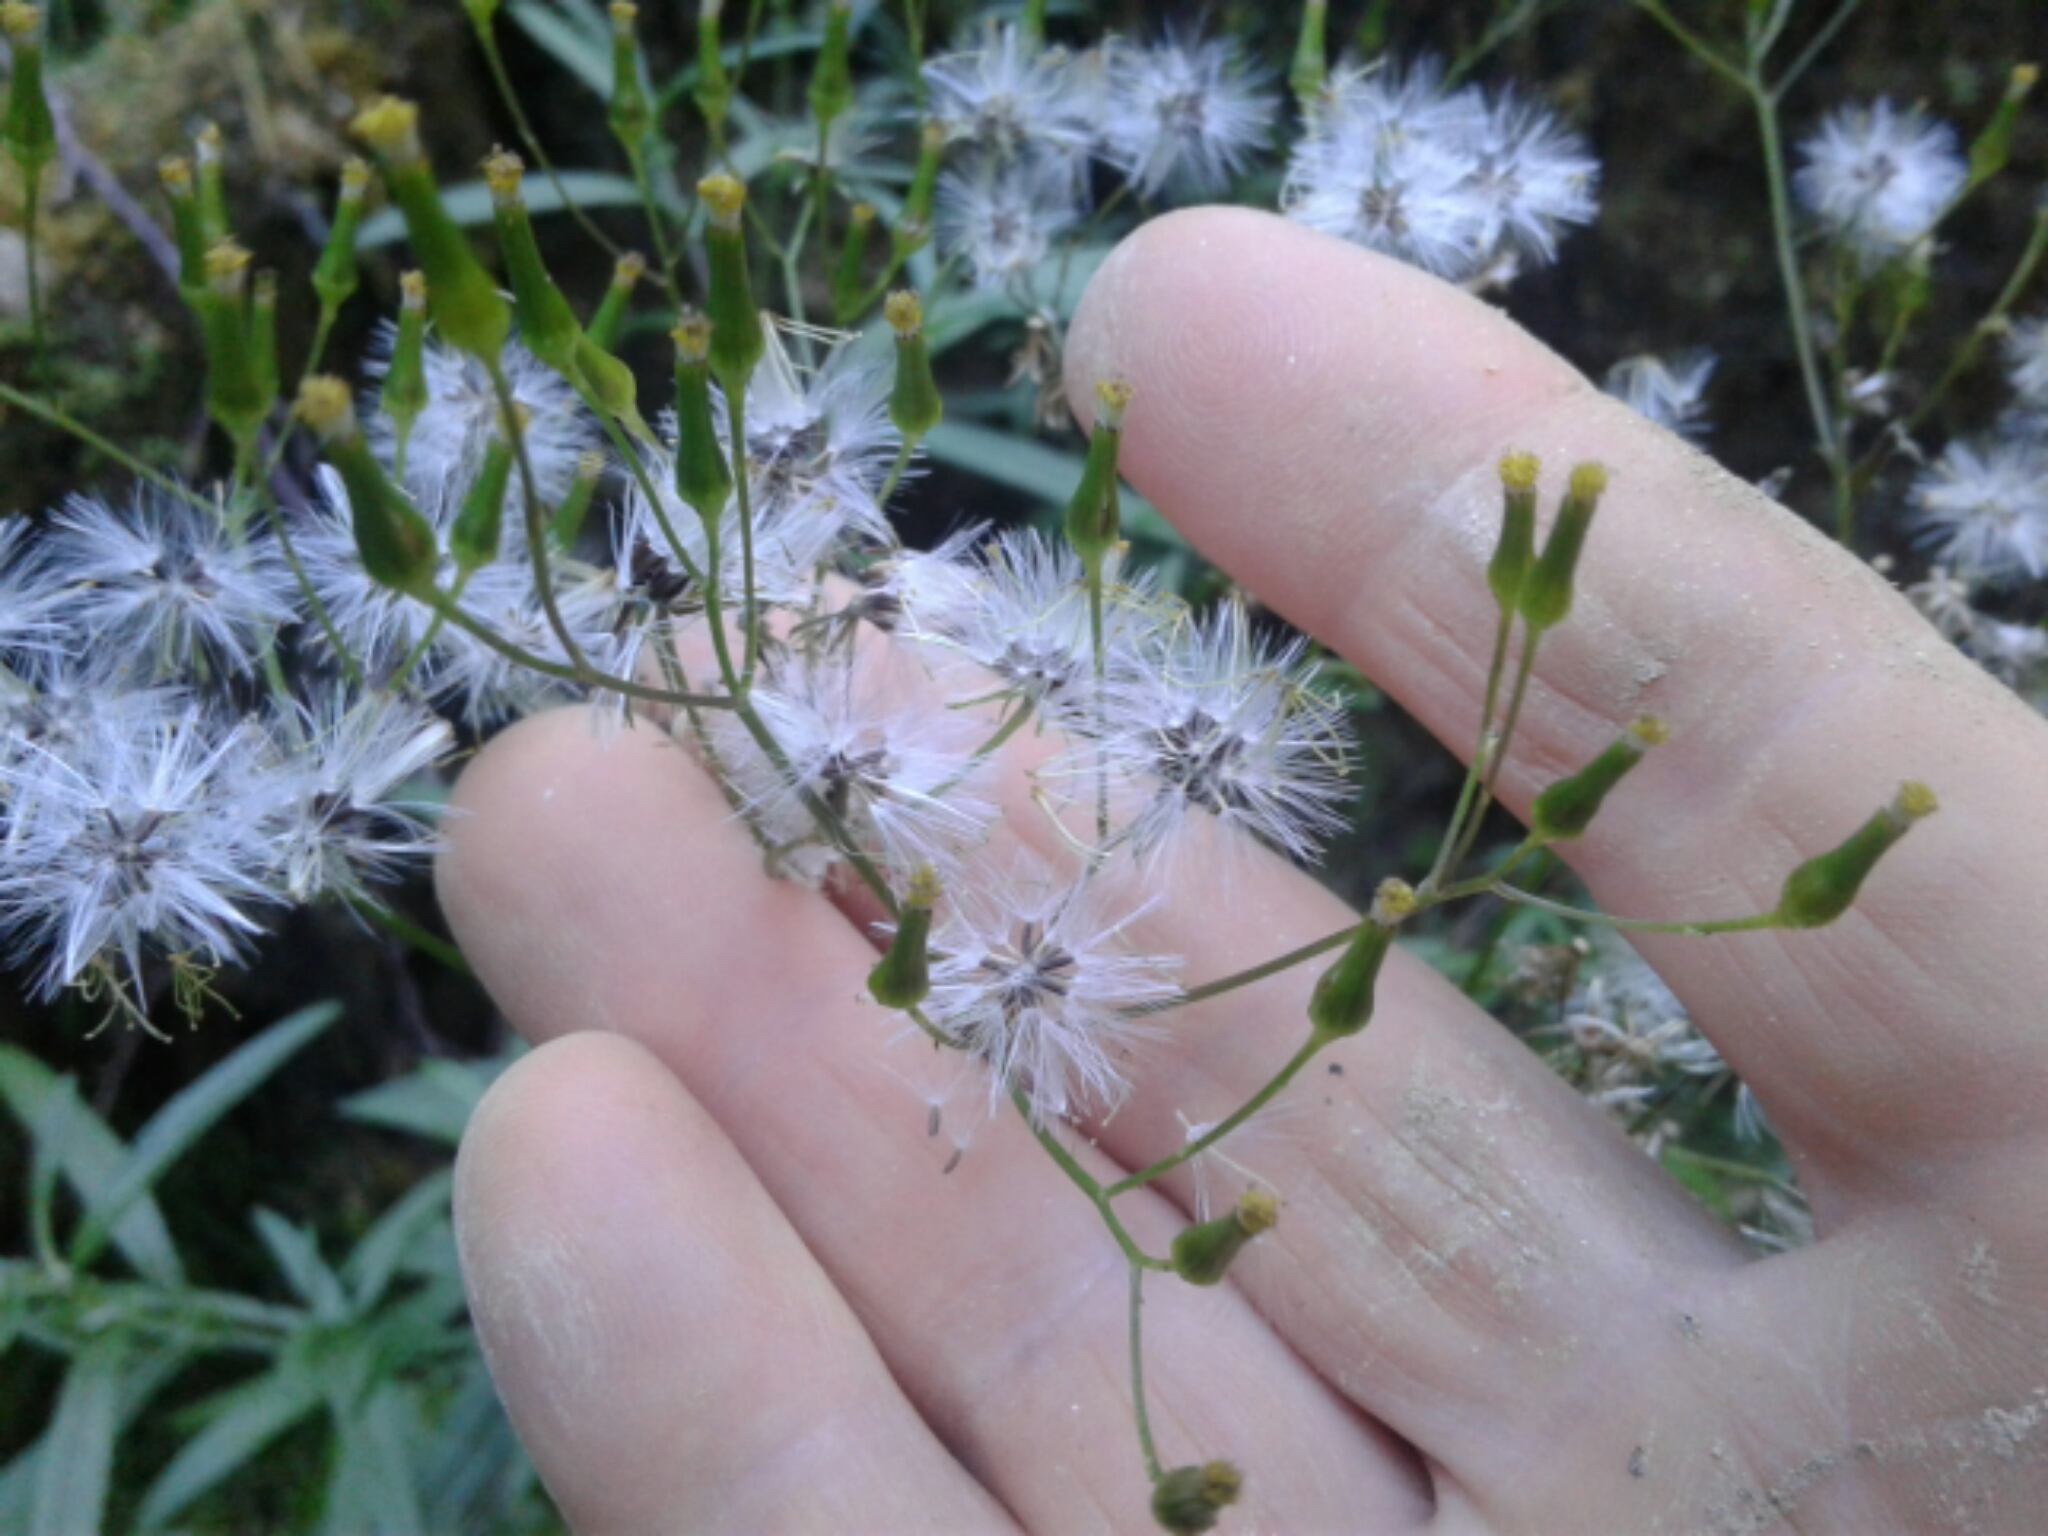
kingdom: Plantae
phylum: Tracheophyta
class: Magnoliopsida
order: Asterales
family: Asteraceae
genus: Senecio
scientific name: Senecio minimus
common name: Toothed fireweed
